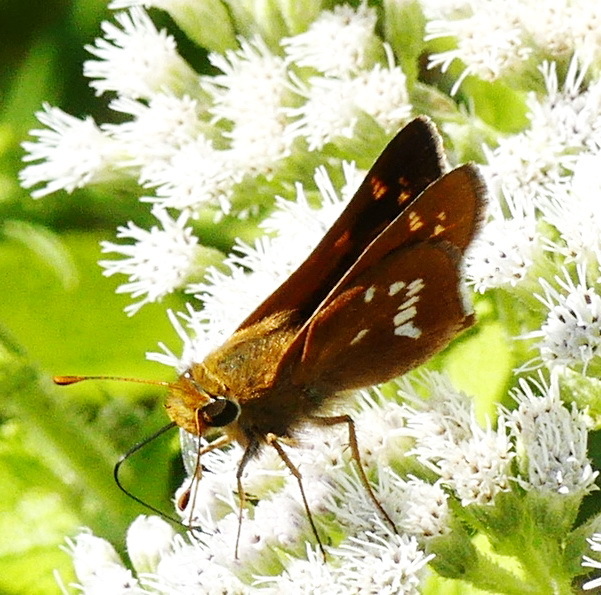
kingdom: Animalia
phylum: Arthropoda
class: Insecta
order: Lepidoptera
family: Hesperiidae
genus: Hesperia
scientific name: Hesperia leonardus
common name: Leonard's skipper
